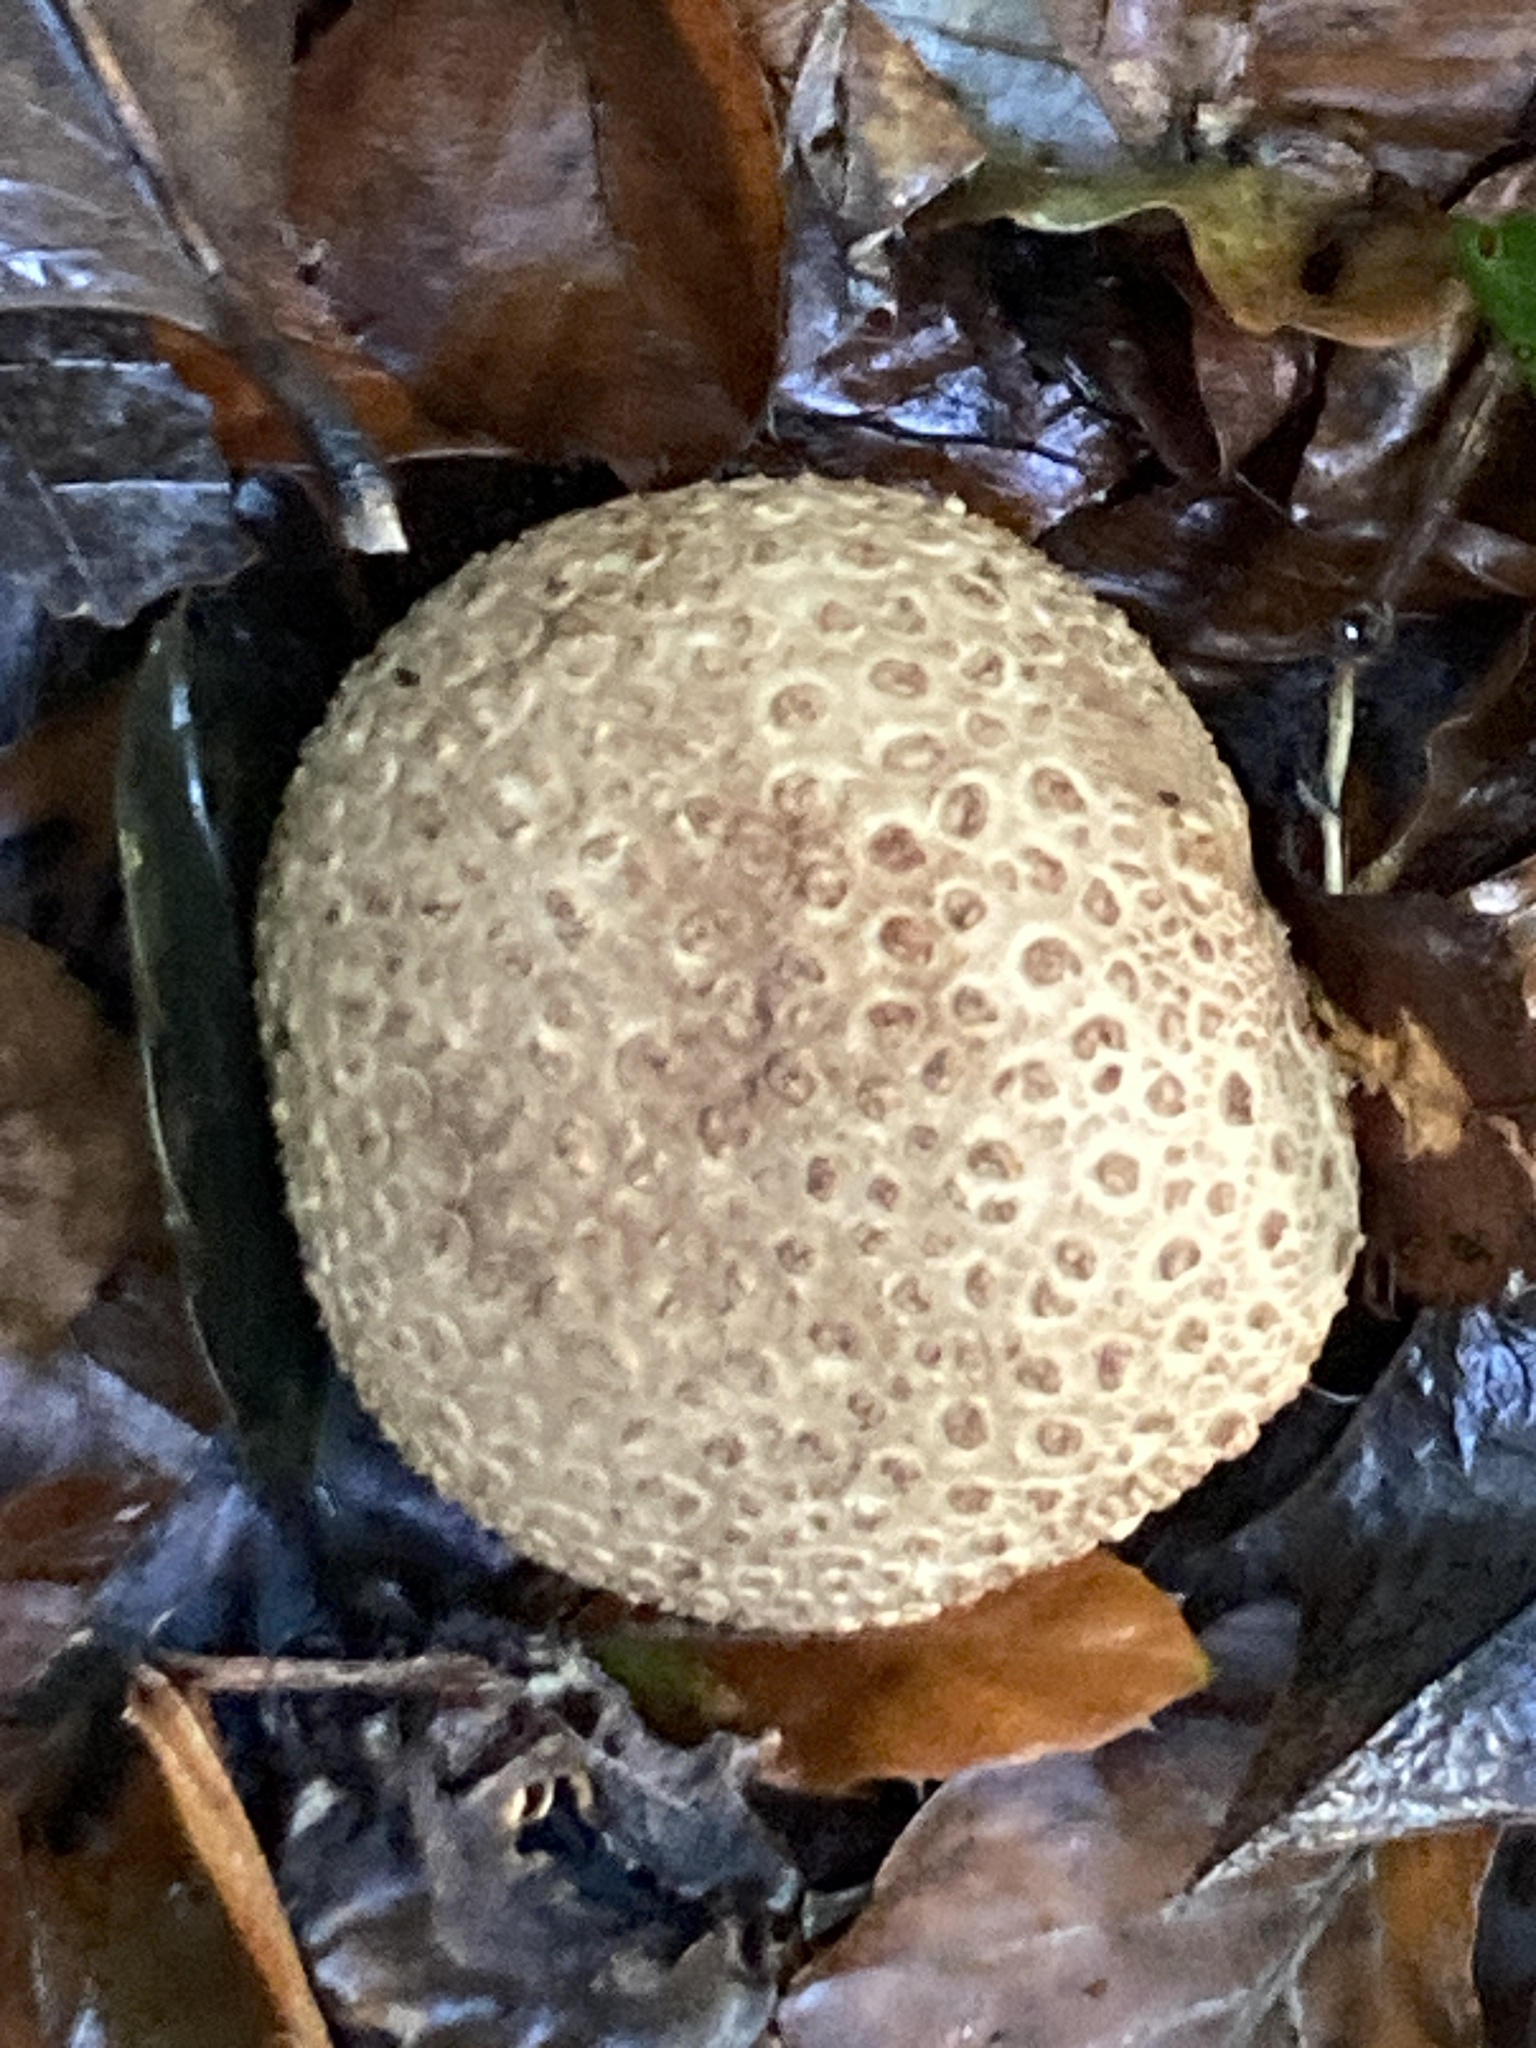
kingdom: Fungi
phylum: Basidiomycota
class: Agaricomycetes
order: Boletales
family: Sclerodermataceae
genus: Scleroderma
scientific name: Scleroderma citrinum
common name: Common earthball
